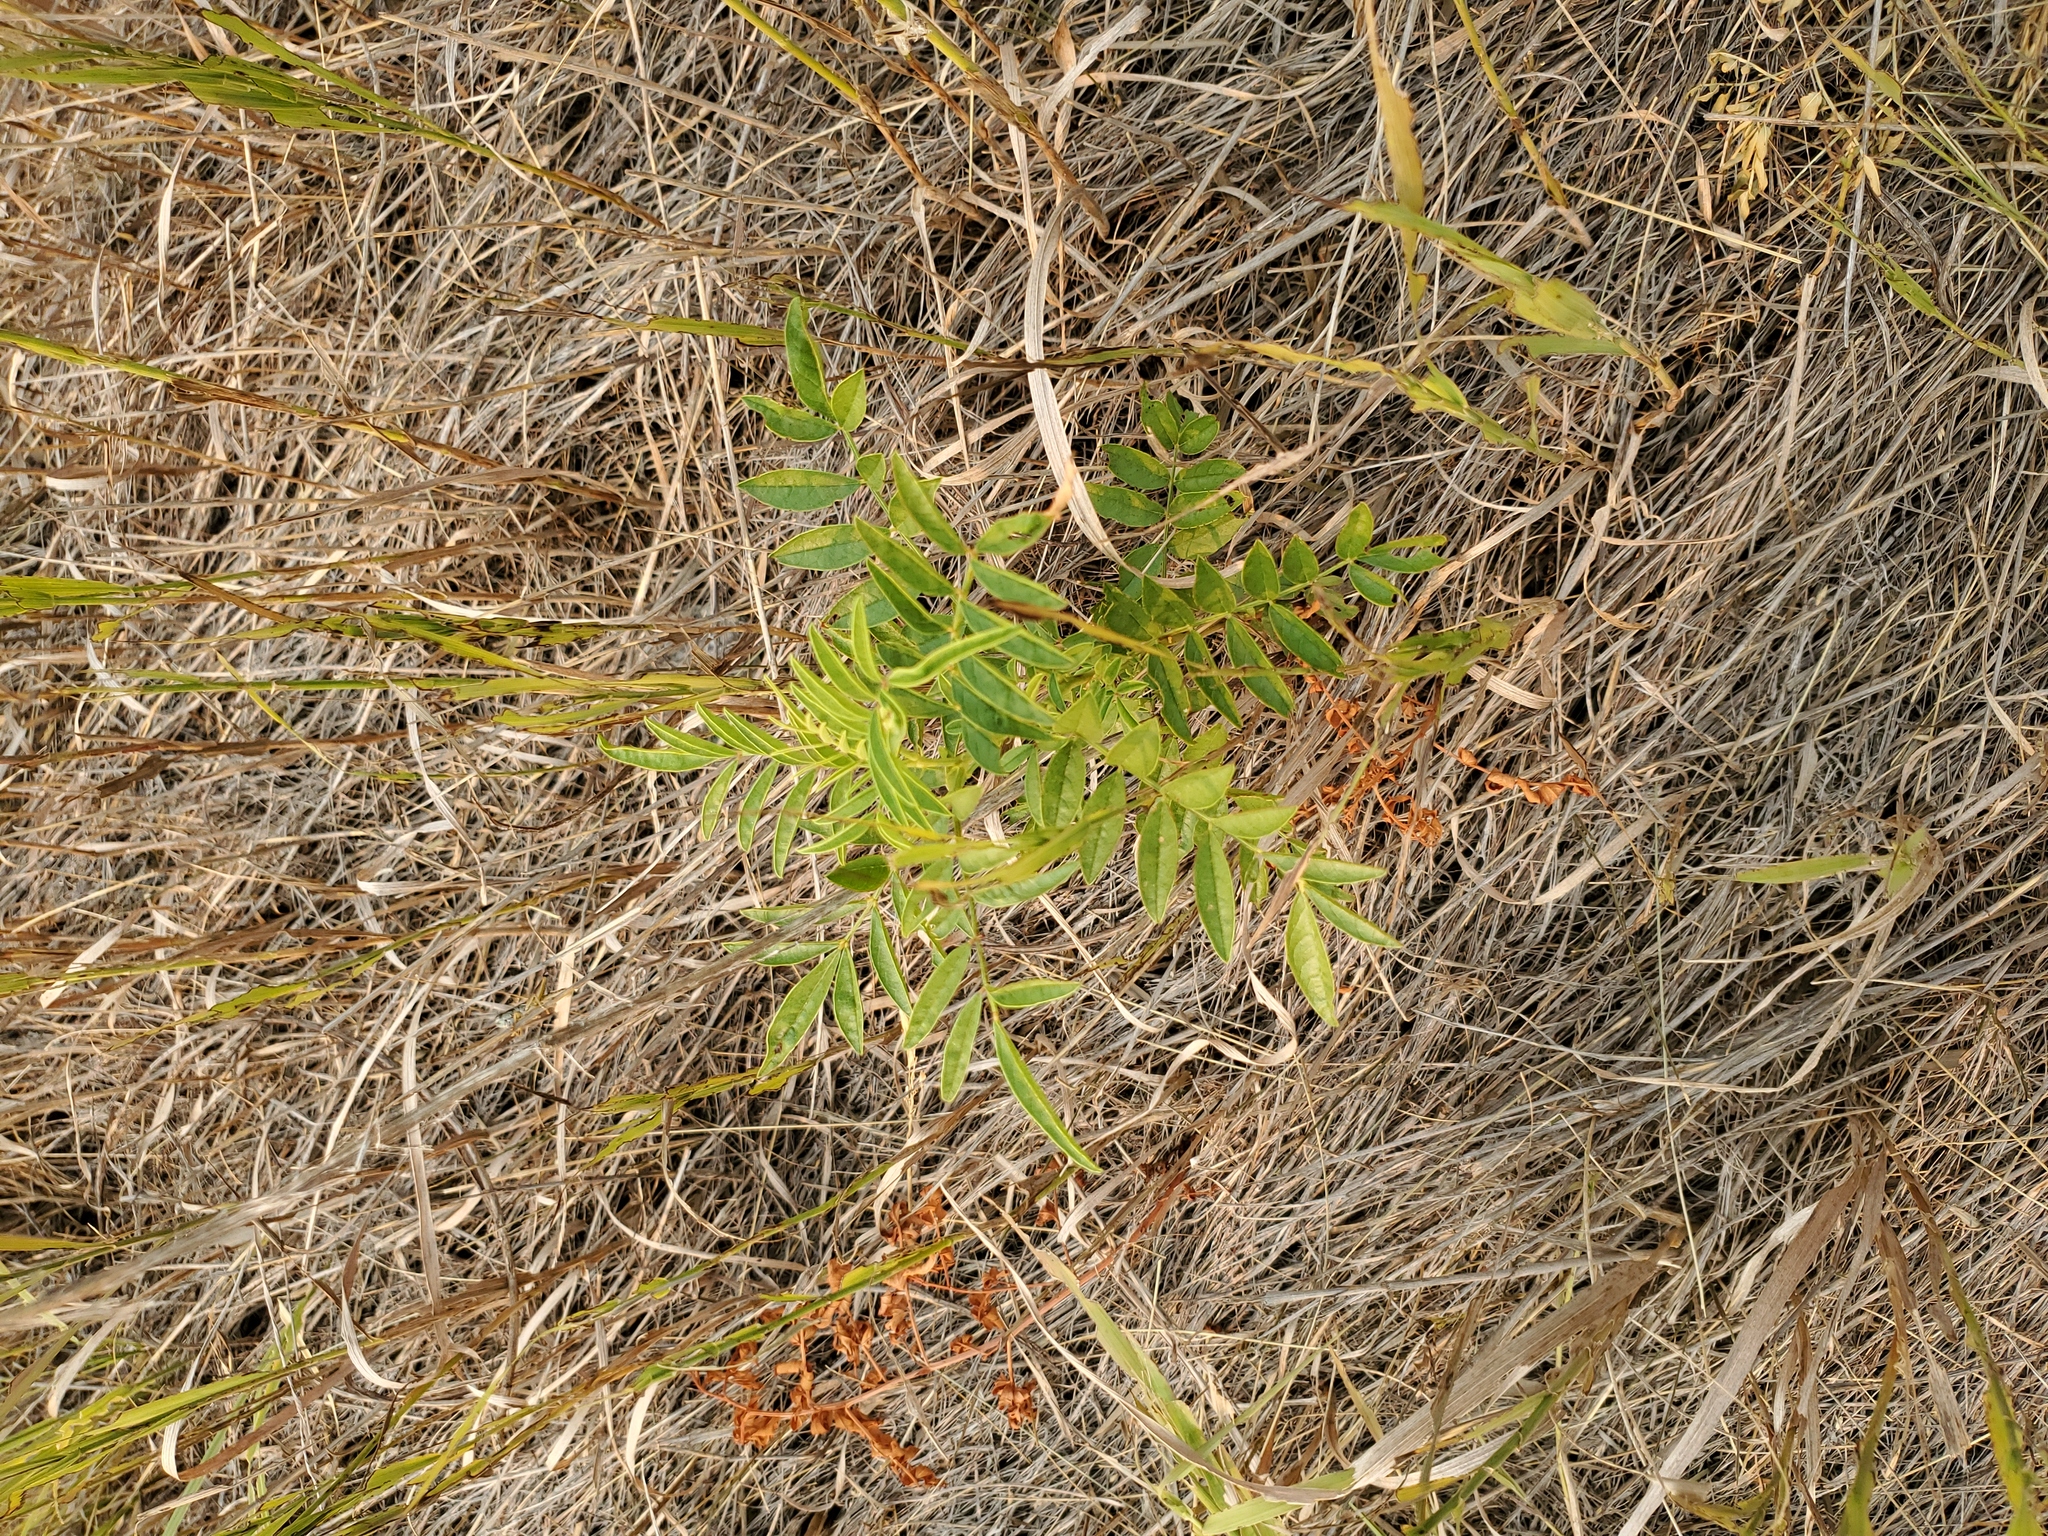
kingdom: Plantae
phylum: Tracheophyta
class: Magnoliopsida
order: Fabales
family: Fabaceae
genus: Glycyrrhiza
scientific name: Glycyrrhiza lepidota
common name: American liquorice
